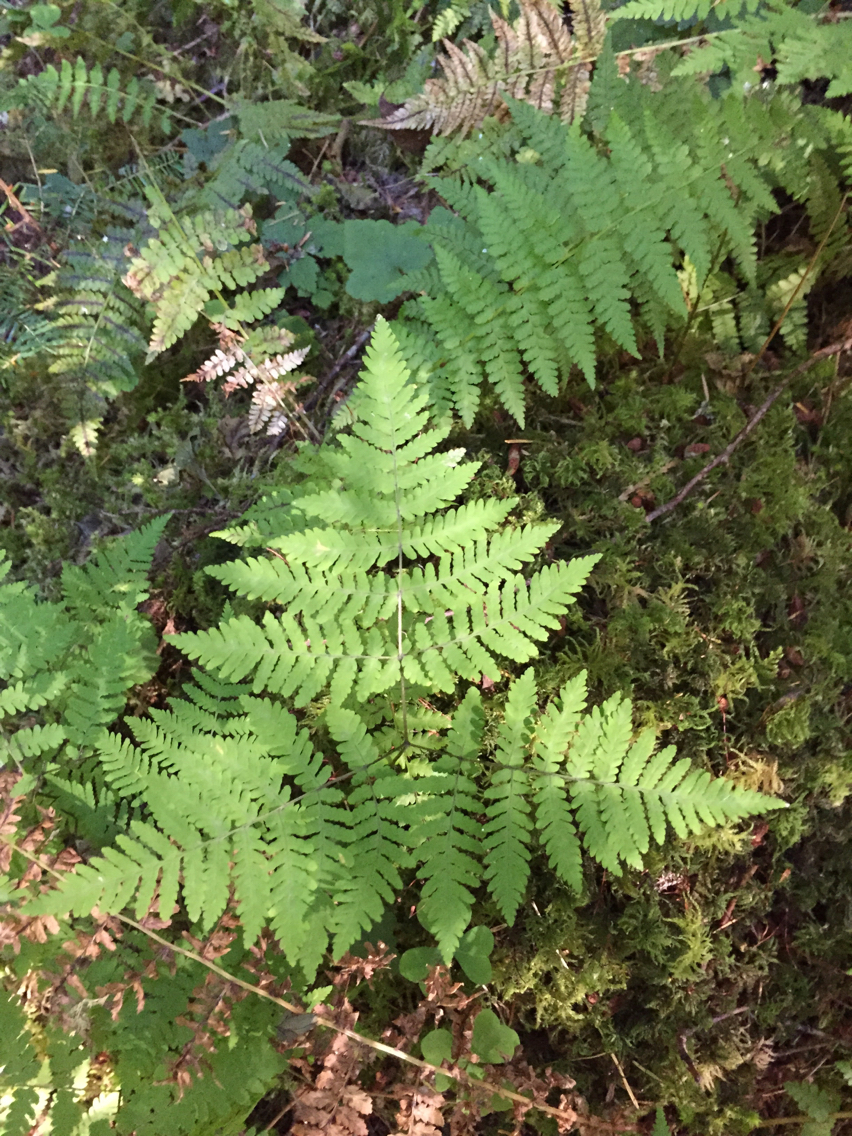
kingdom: Plantae
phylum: Tracheophyta
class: Polypodiopsida
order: Polypodiales
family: Cystopteridaceae
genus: Gymnocarpium
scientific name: Gymnocarpium disjunctum
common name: Western oak fern
